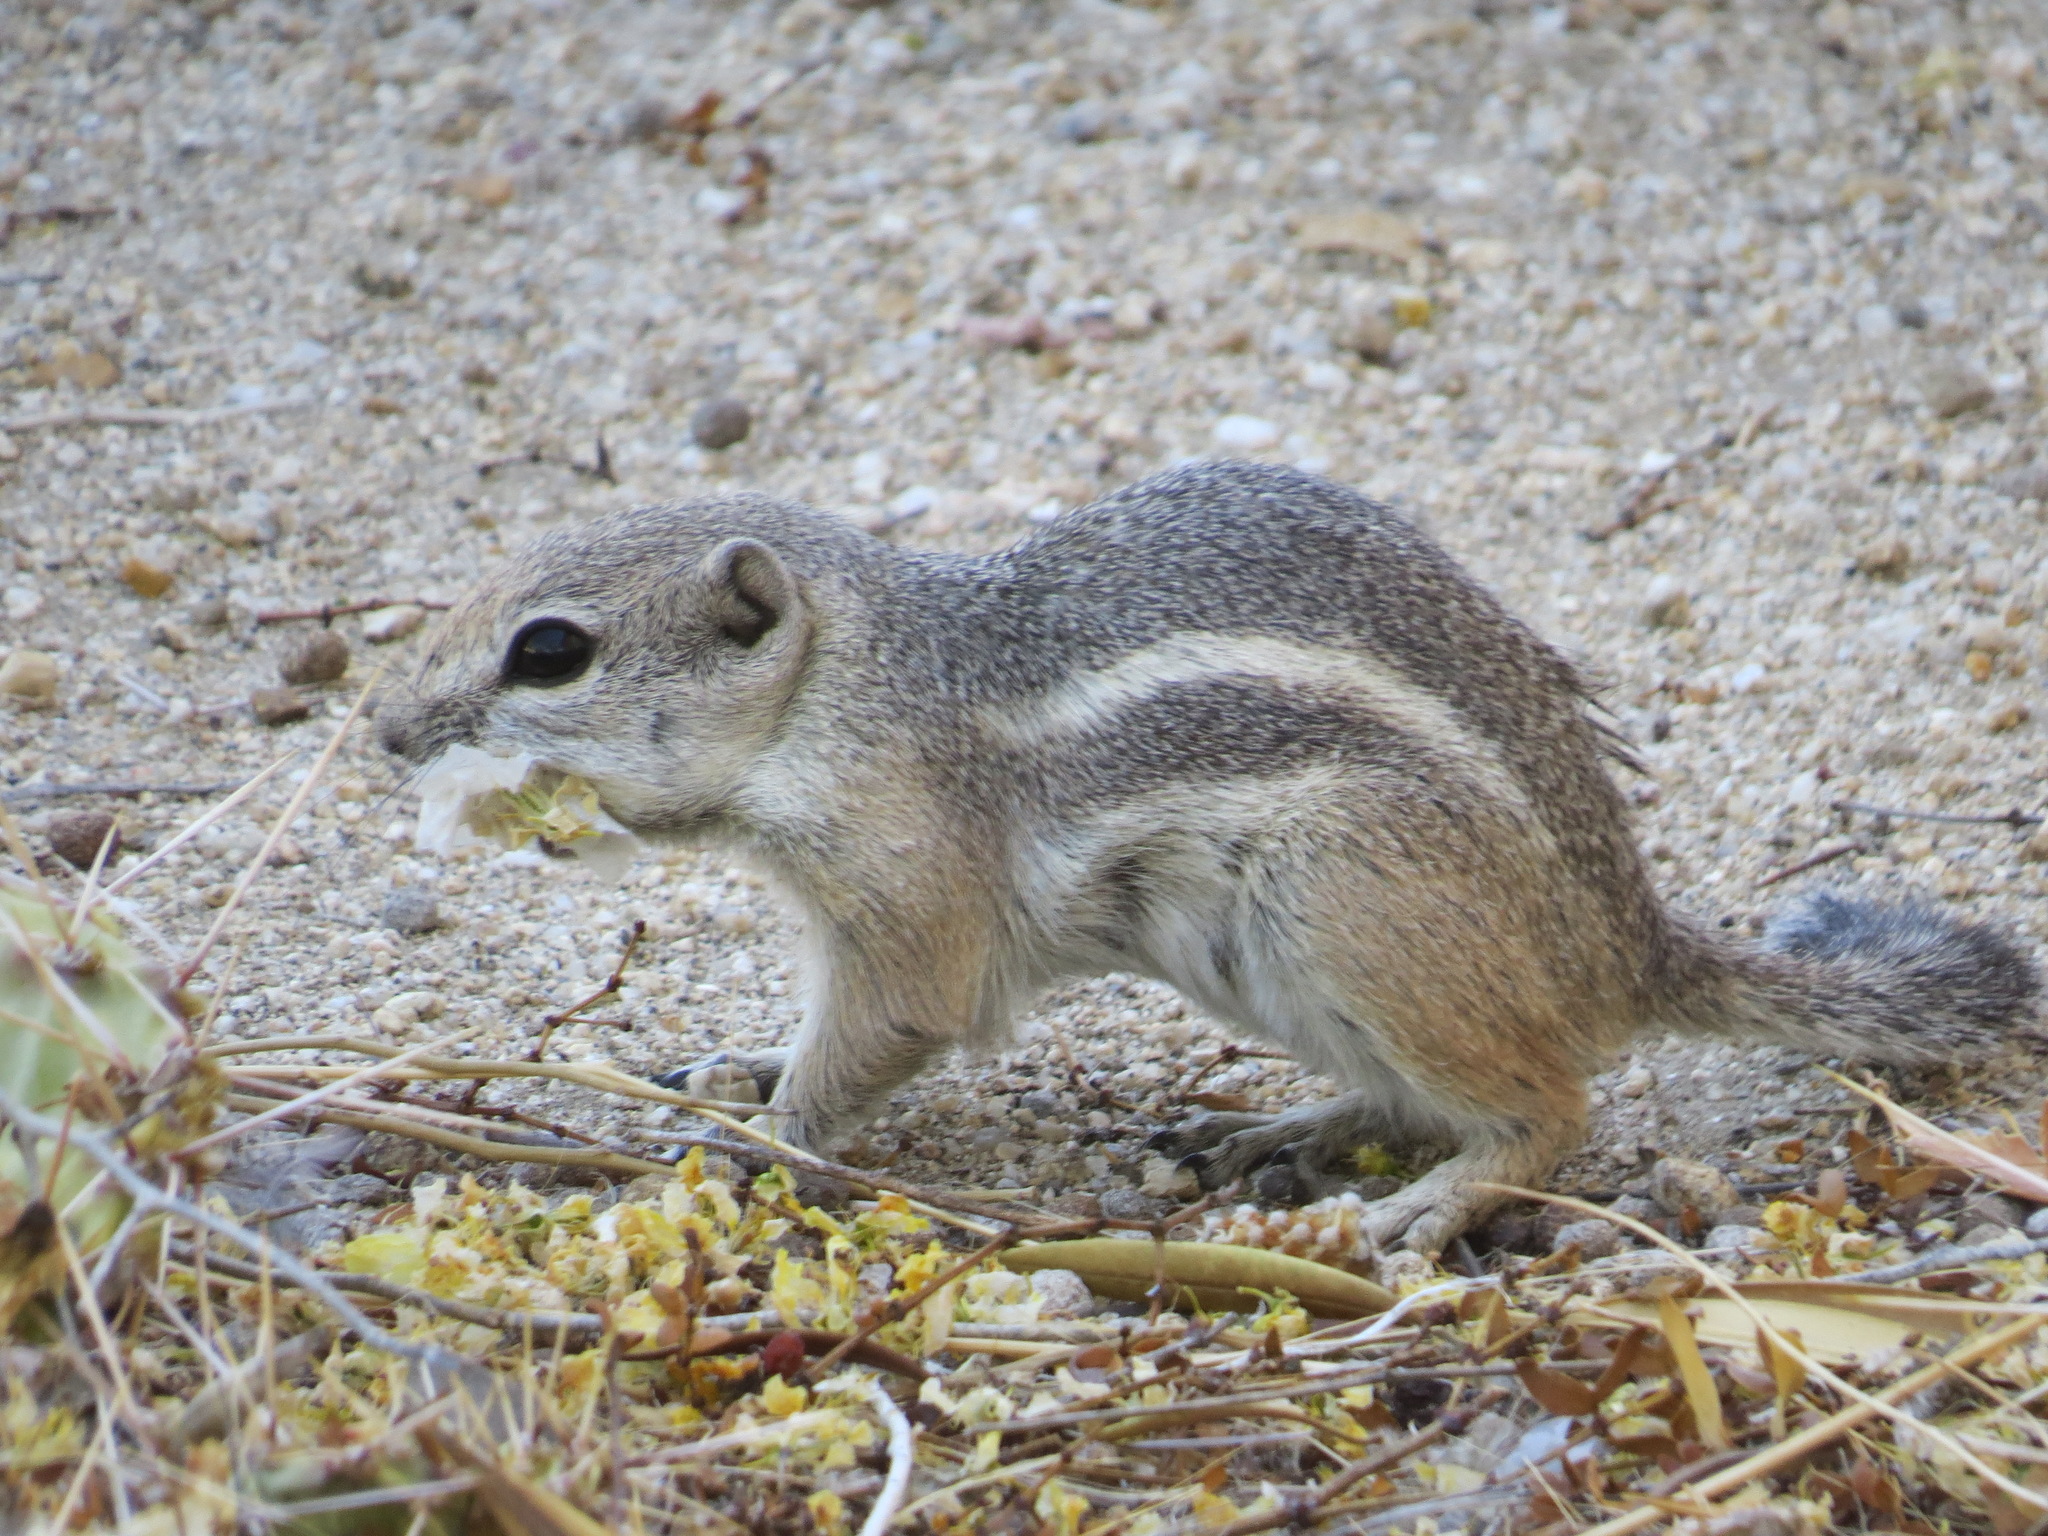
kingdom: Animalia
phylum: Chordata
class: Mammalia
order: Rodentia
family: Sciuridae
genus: Ammospermophilus
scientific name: Ammospermophilus leucurus
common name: White-tailed antelope squirrel
